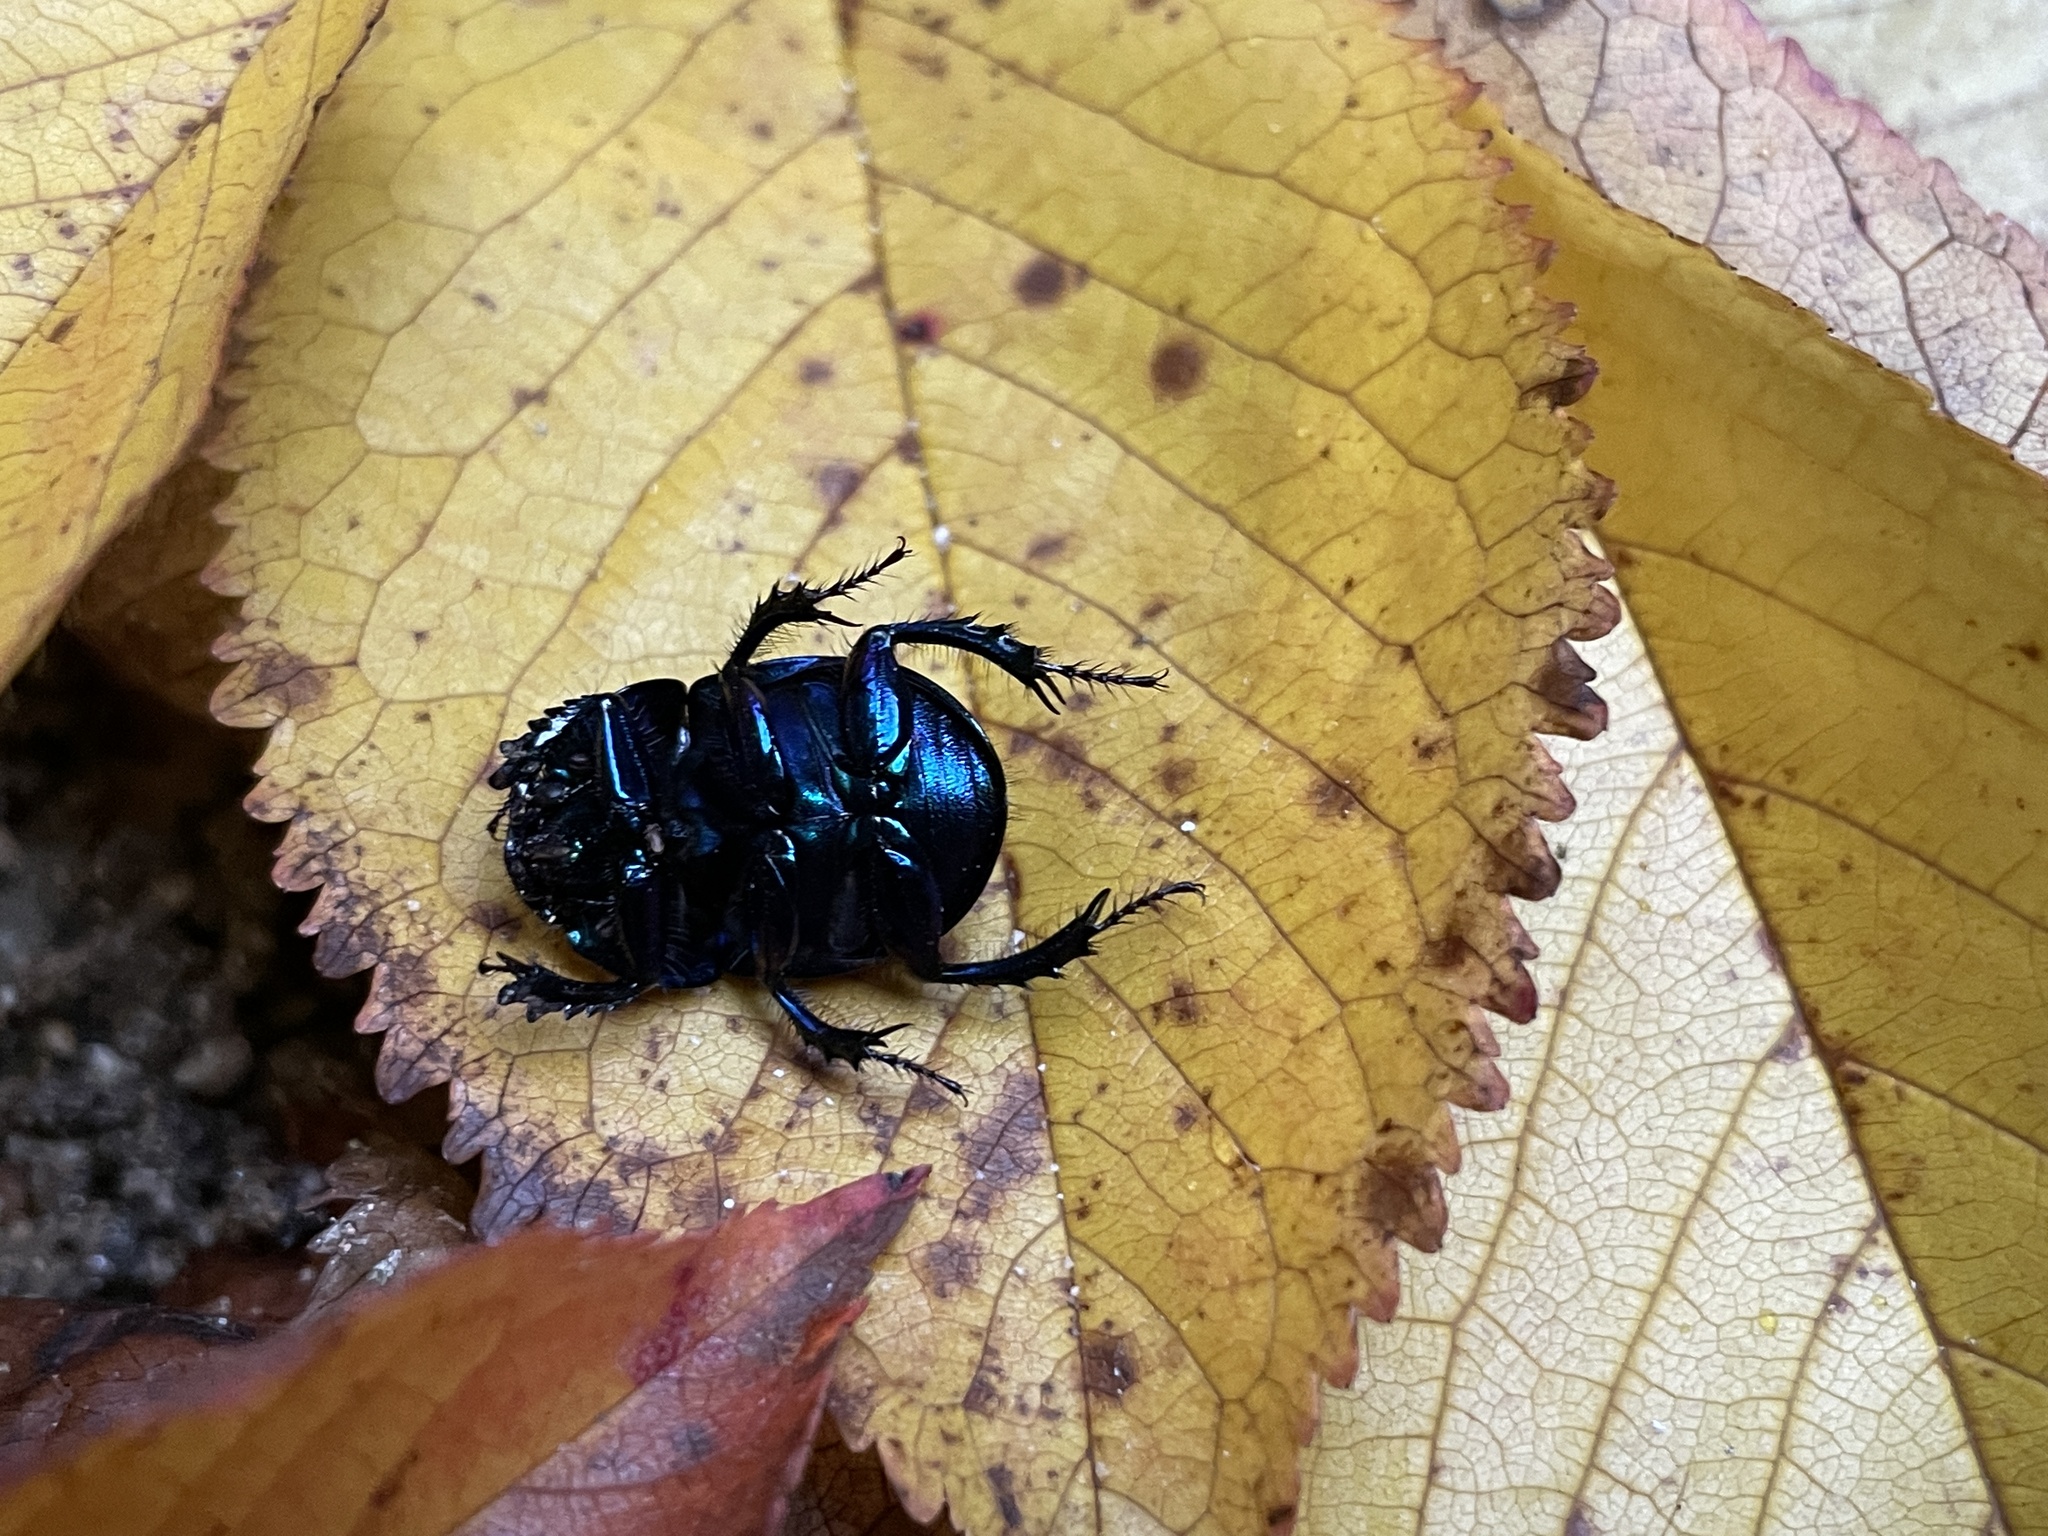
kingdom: Animalia
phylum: Arthropoda
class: Insecta
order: Coleoptera
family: Geotrupidae
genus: Anoplotrupes
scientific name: Anoplotrupes stercorosus
